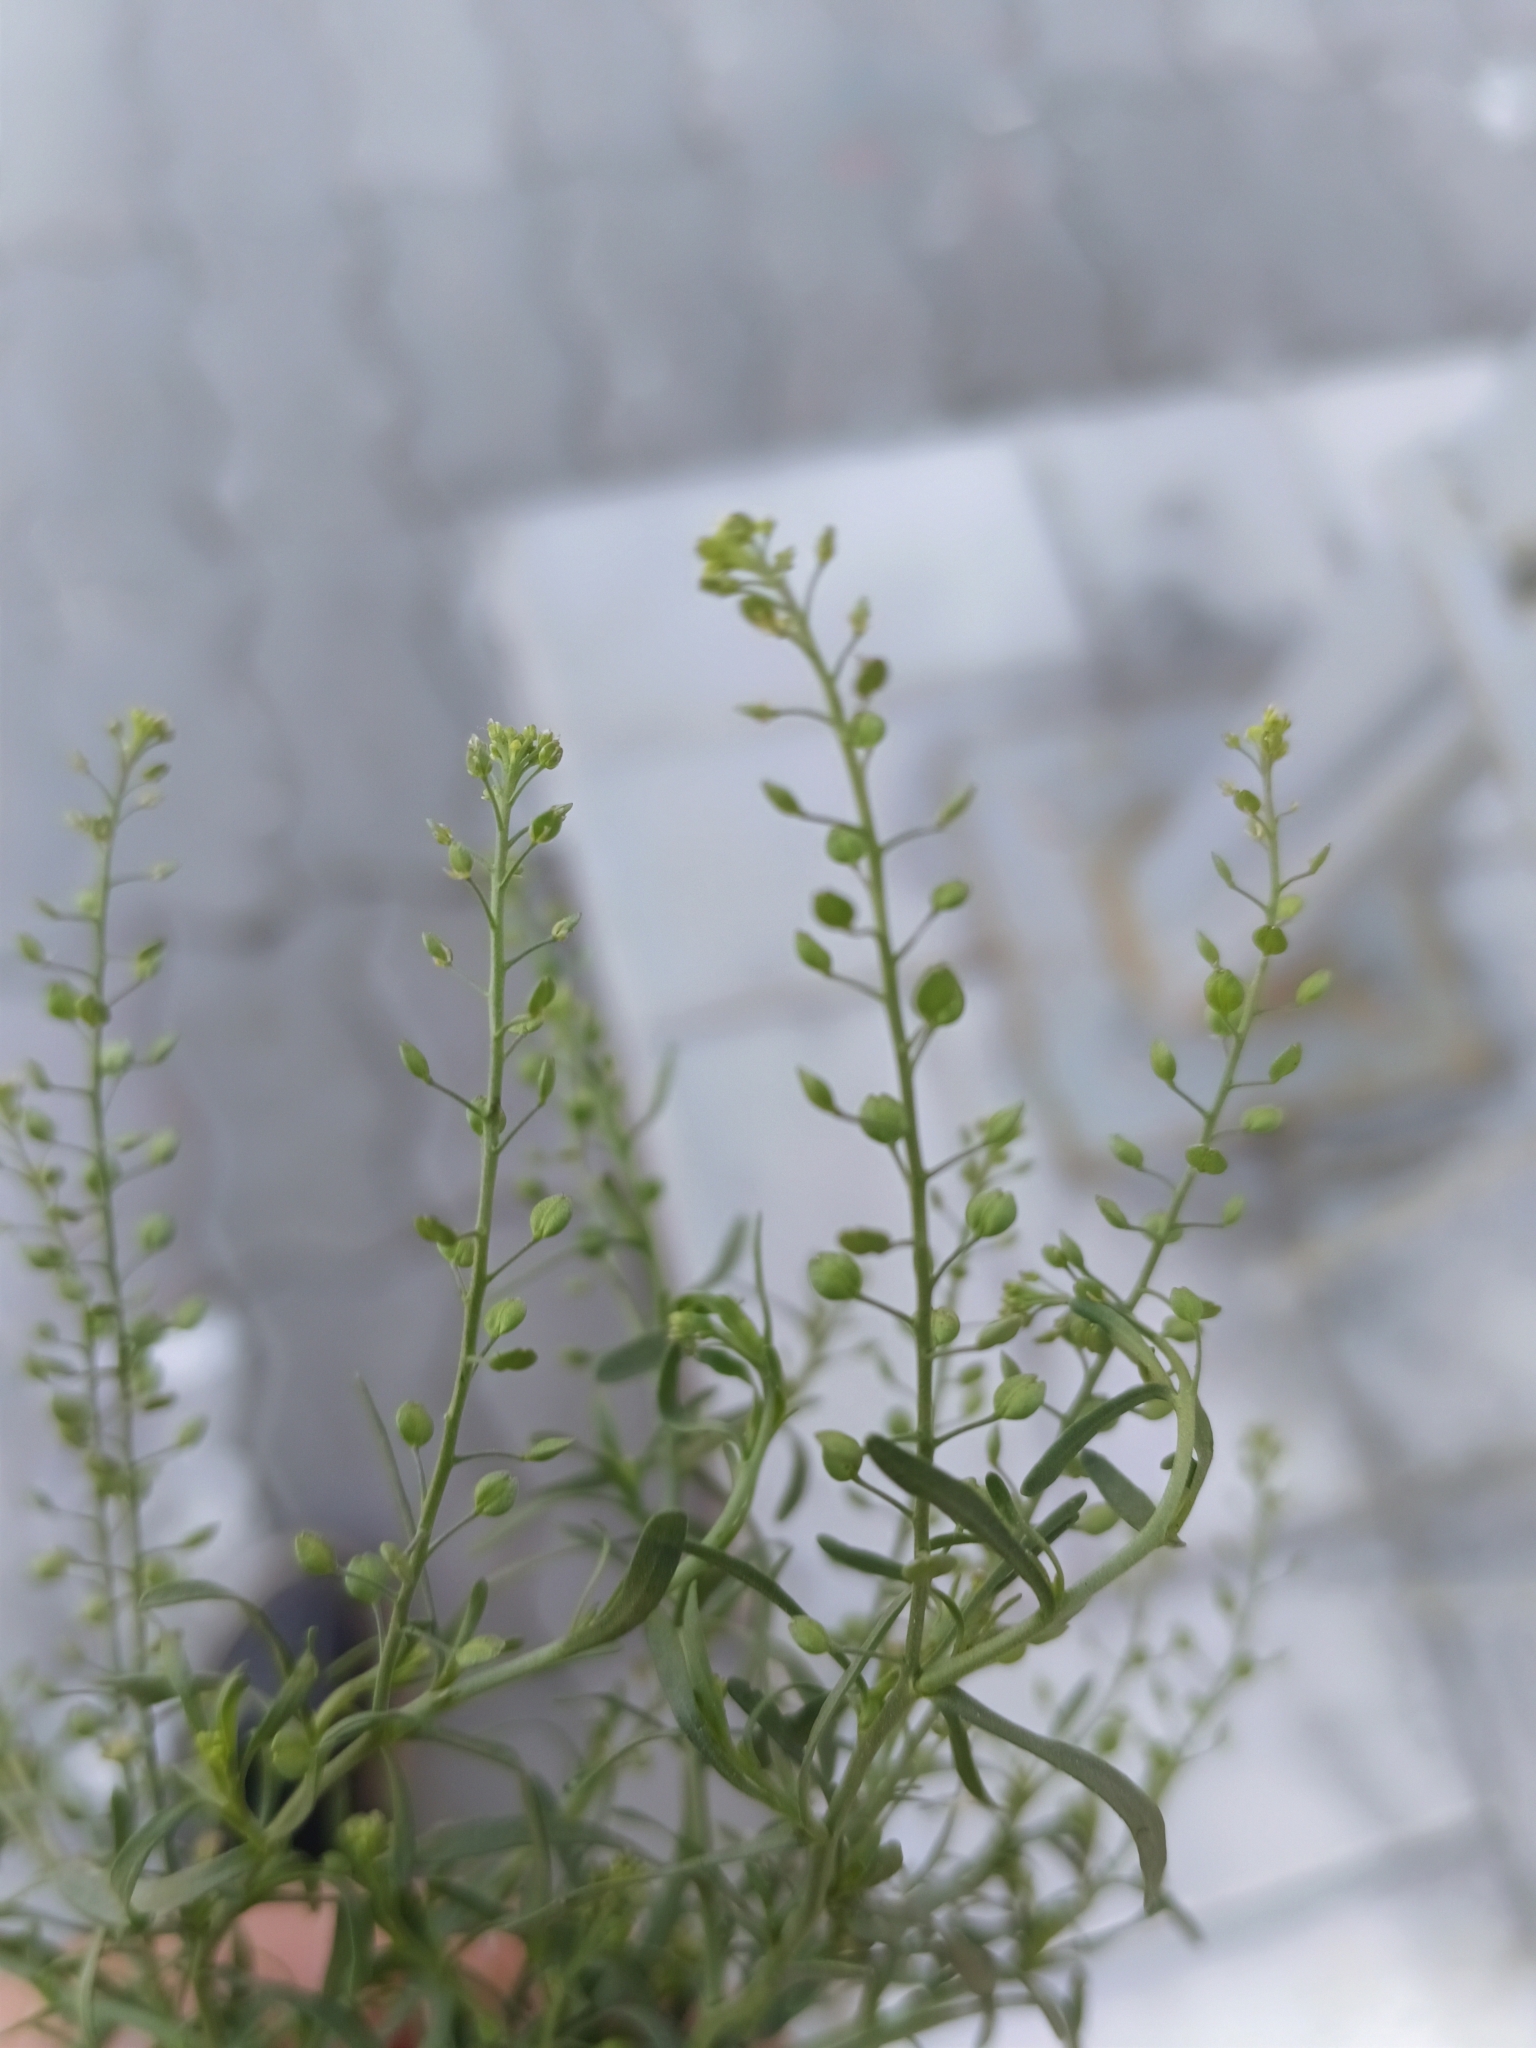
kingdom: Plantae
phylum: Tracheophyta
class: Magnoliopsida
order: Brassicales
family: Brassicaceae
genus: Lepidium
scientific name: Lepidium ruderale
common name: Narrow-leaved pepperwort
